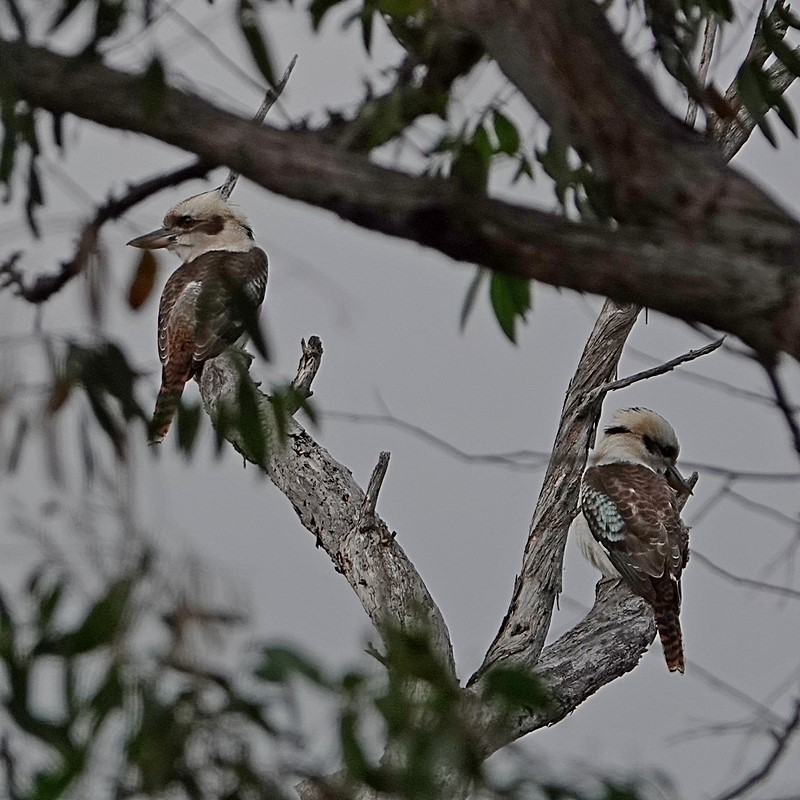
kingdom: Animalia
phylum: Chordata
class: Aves
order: Coraciiformes
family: Alcedinidae
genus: Dacelo
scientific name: Dacelo novaeguineae
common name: Laughing kookaburra
